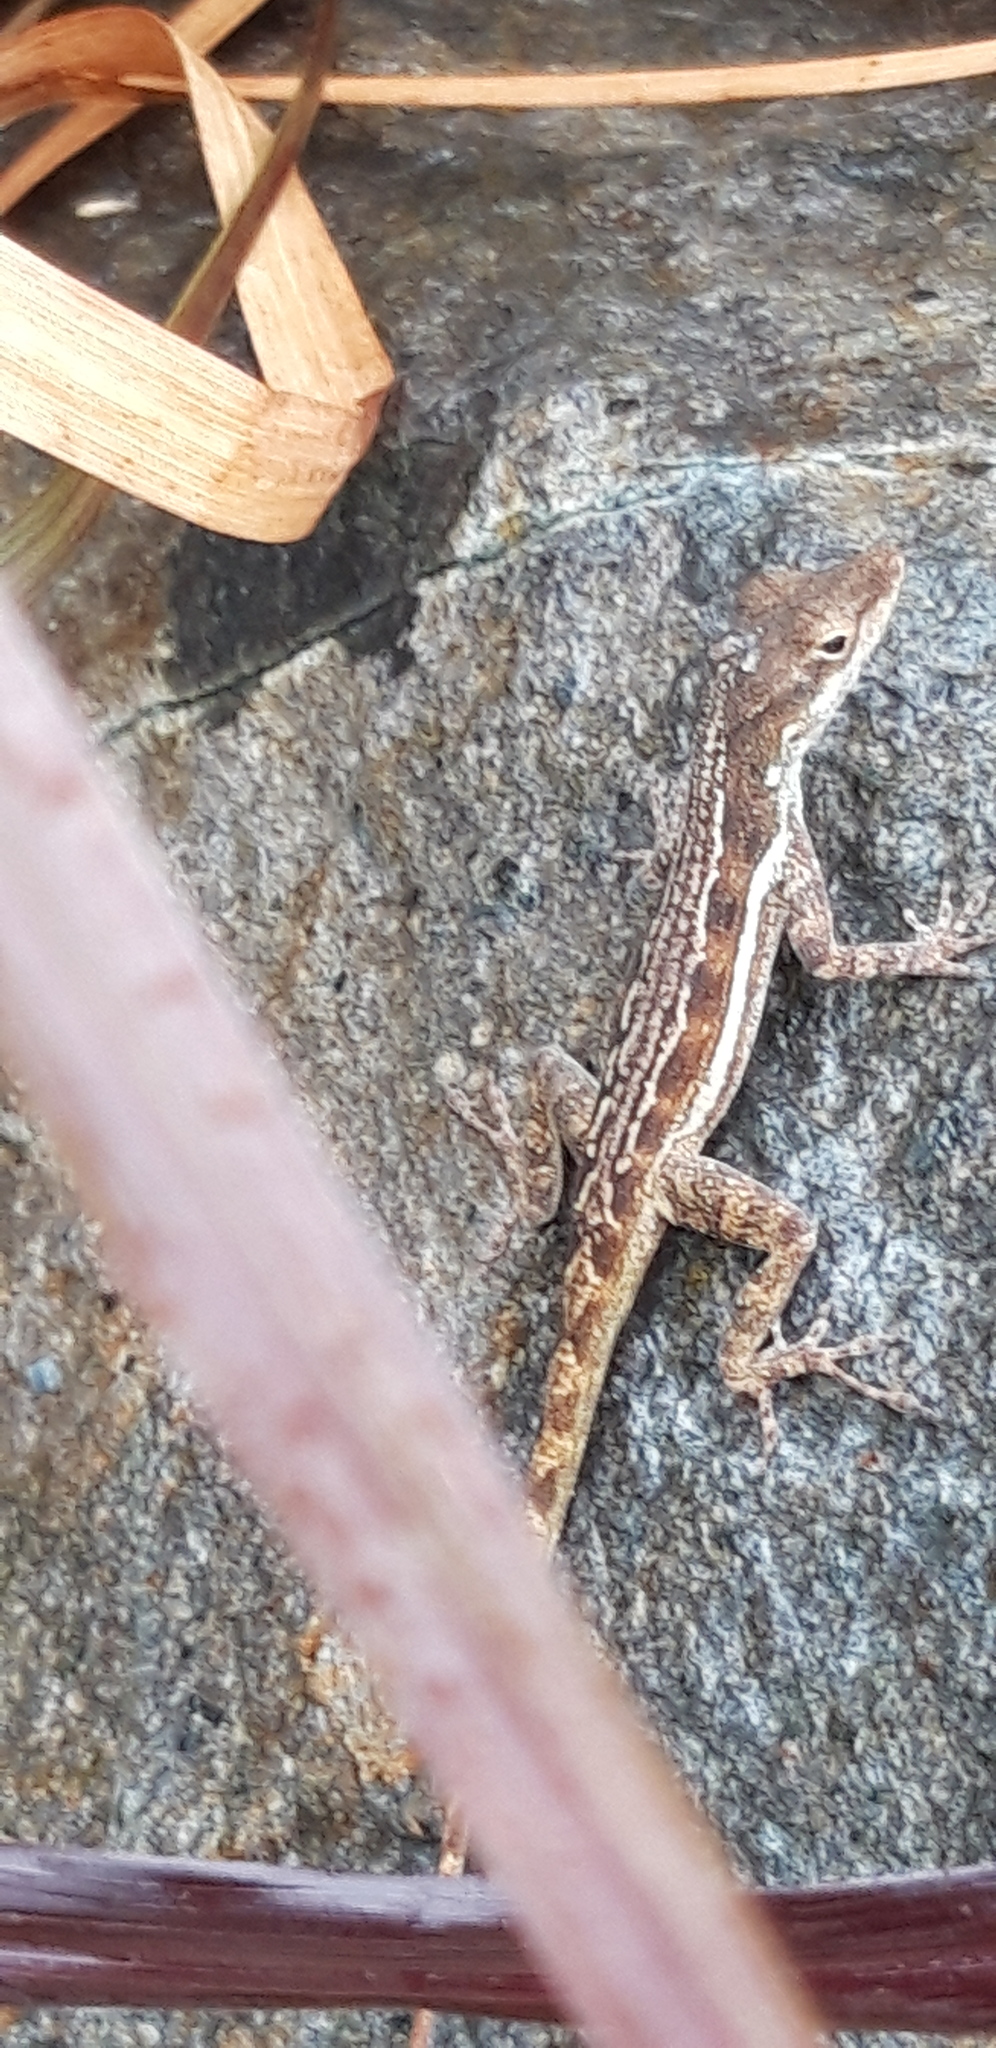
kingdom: Animalia
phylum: Chordata
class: Squamata
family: Dactyloidae
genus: Anolis
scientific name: Anolis gingivinus
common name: Anguilla anole
